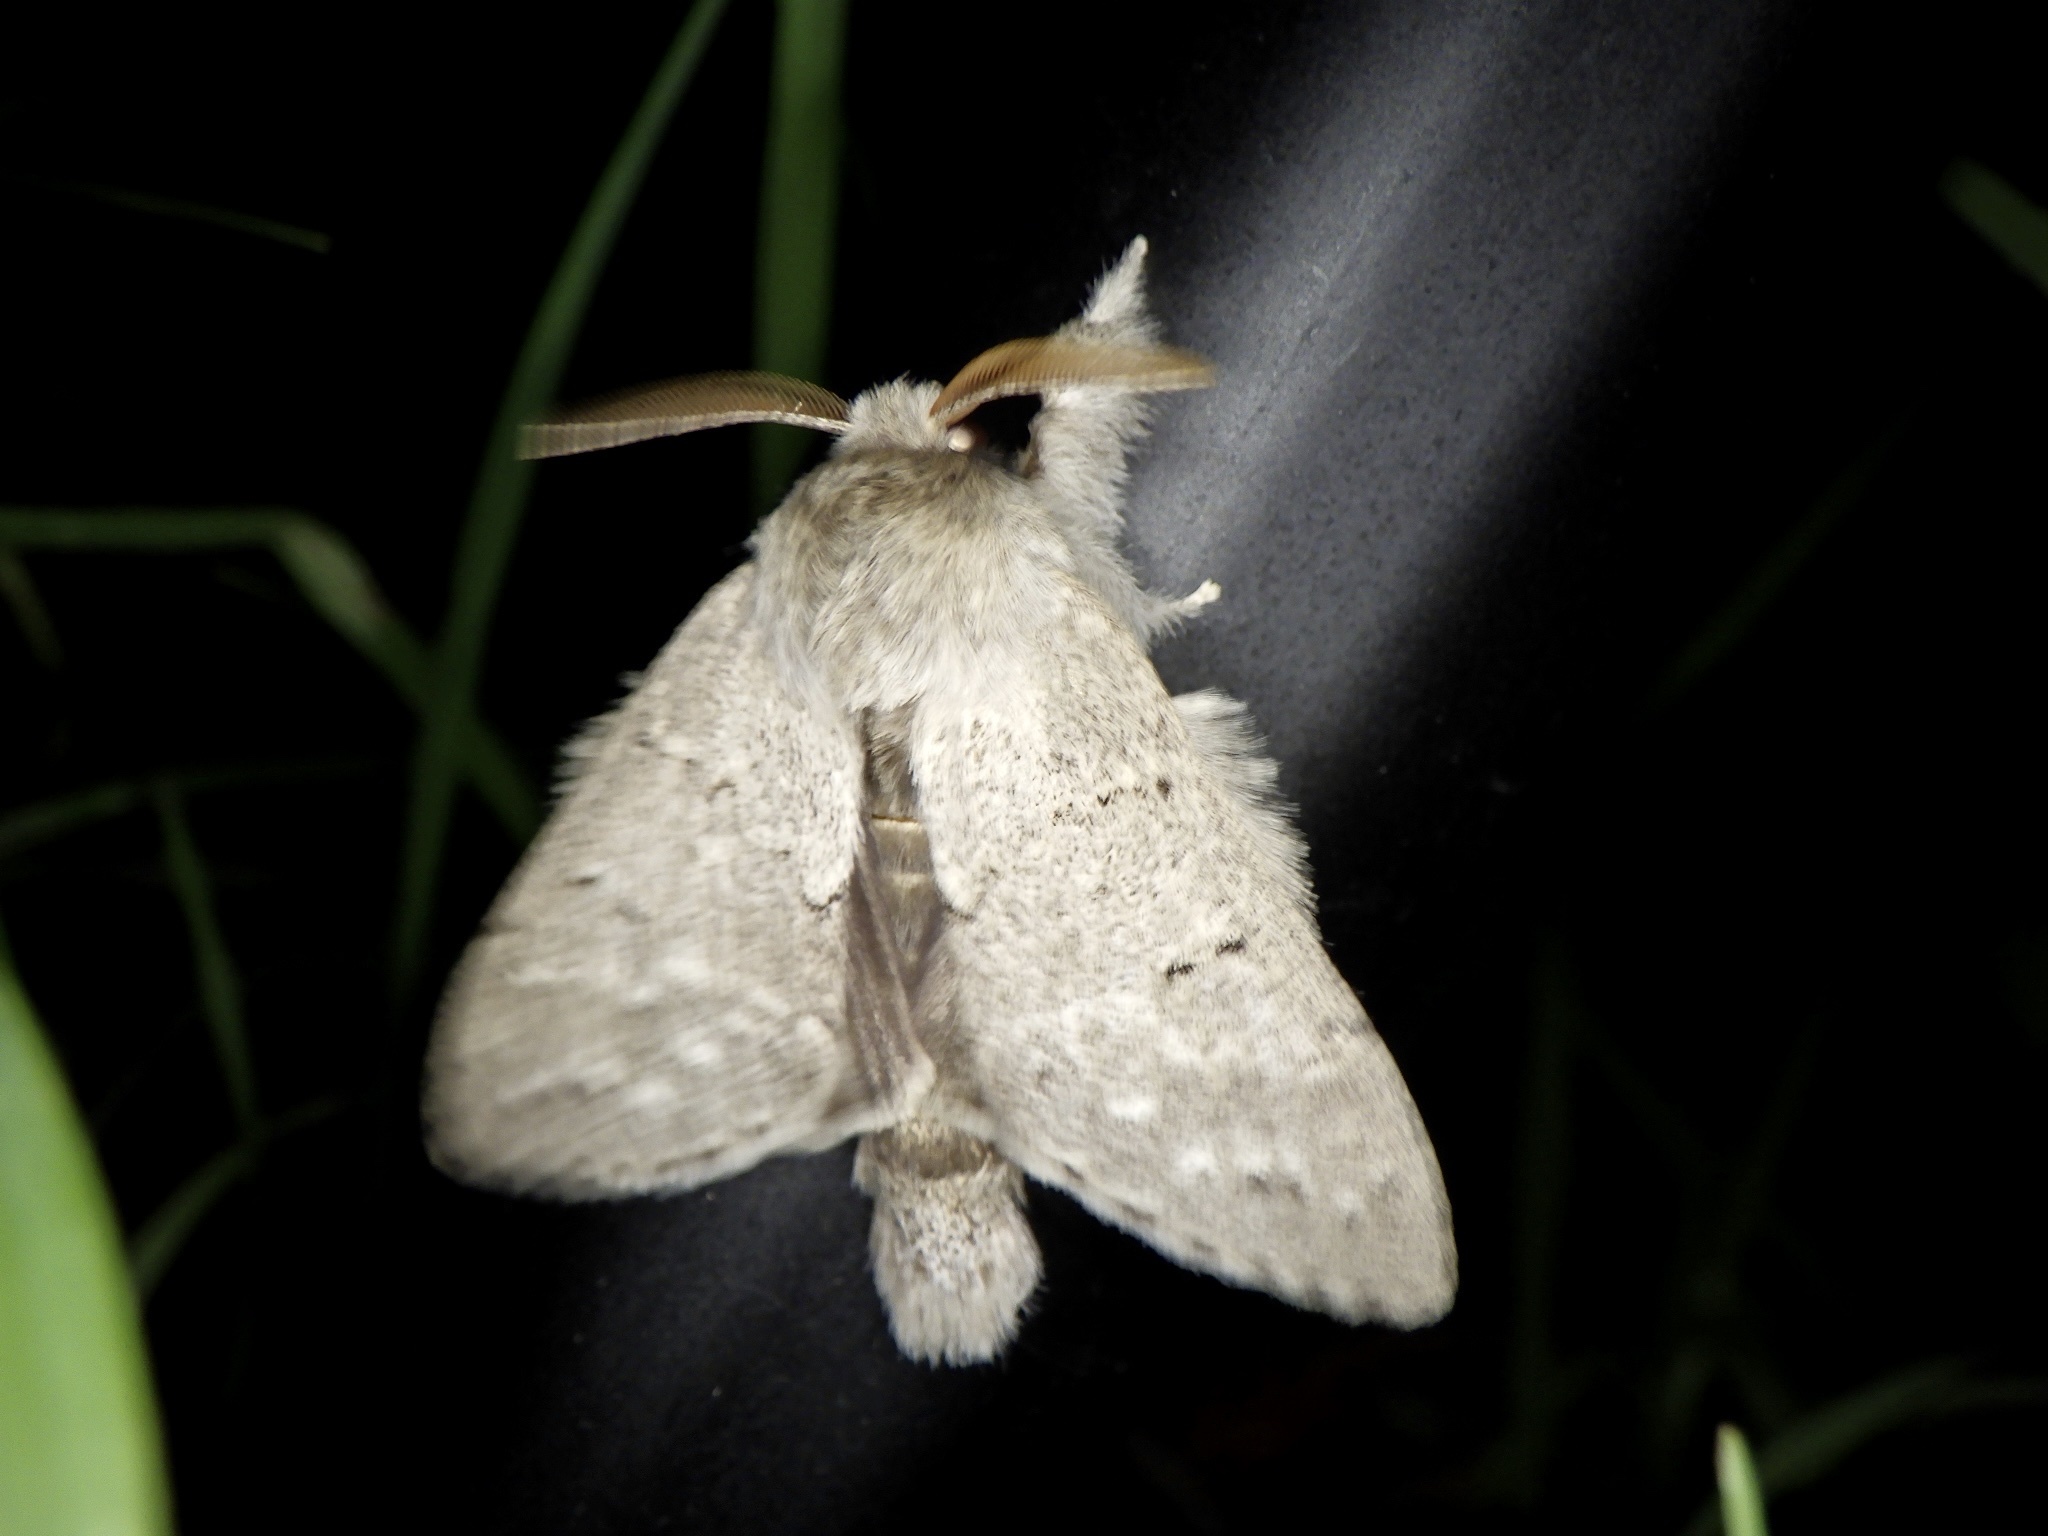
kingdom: Animalia
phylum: Arthropoda
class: Insecta
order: Lepidoptera
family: Notodontidae
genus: Cnethodonta
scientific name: Cnethodonta grisescens
